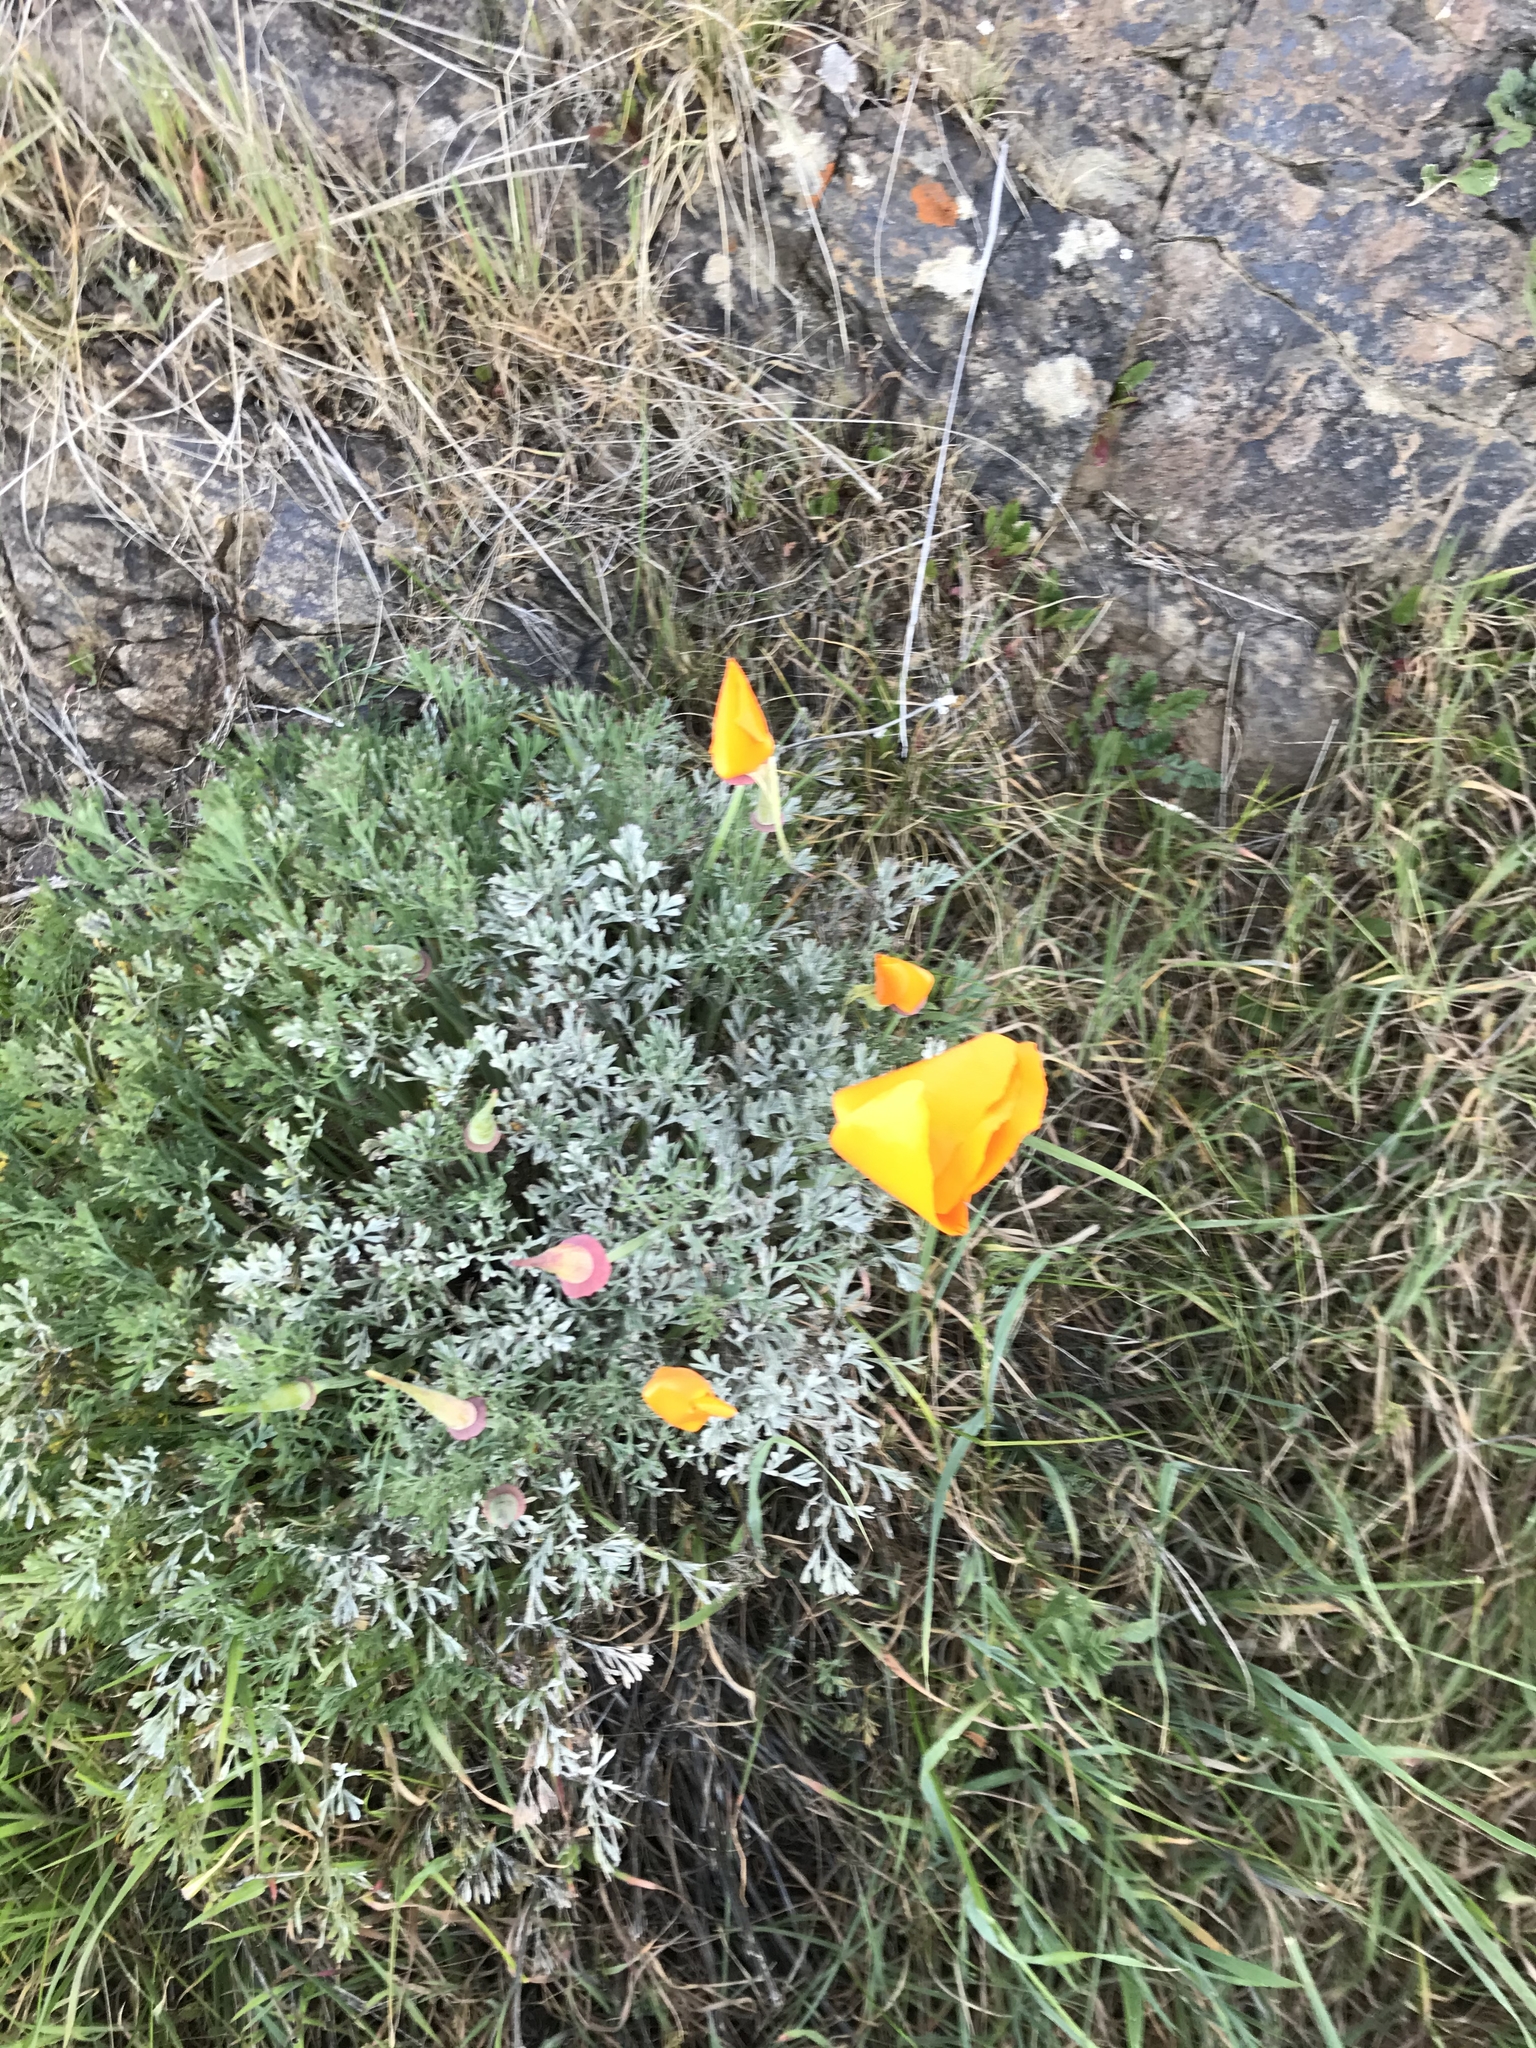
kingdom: Plantae
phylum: Tracheophyta
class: Magnoliopsida
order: Ranunculales
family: Papaveraceae
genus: Eschscholzia
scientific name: Eschscholzia californica
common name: California poppy
